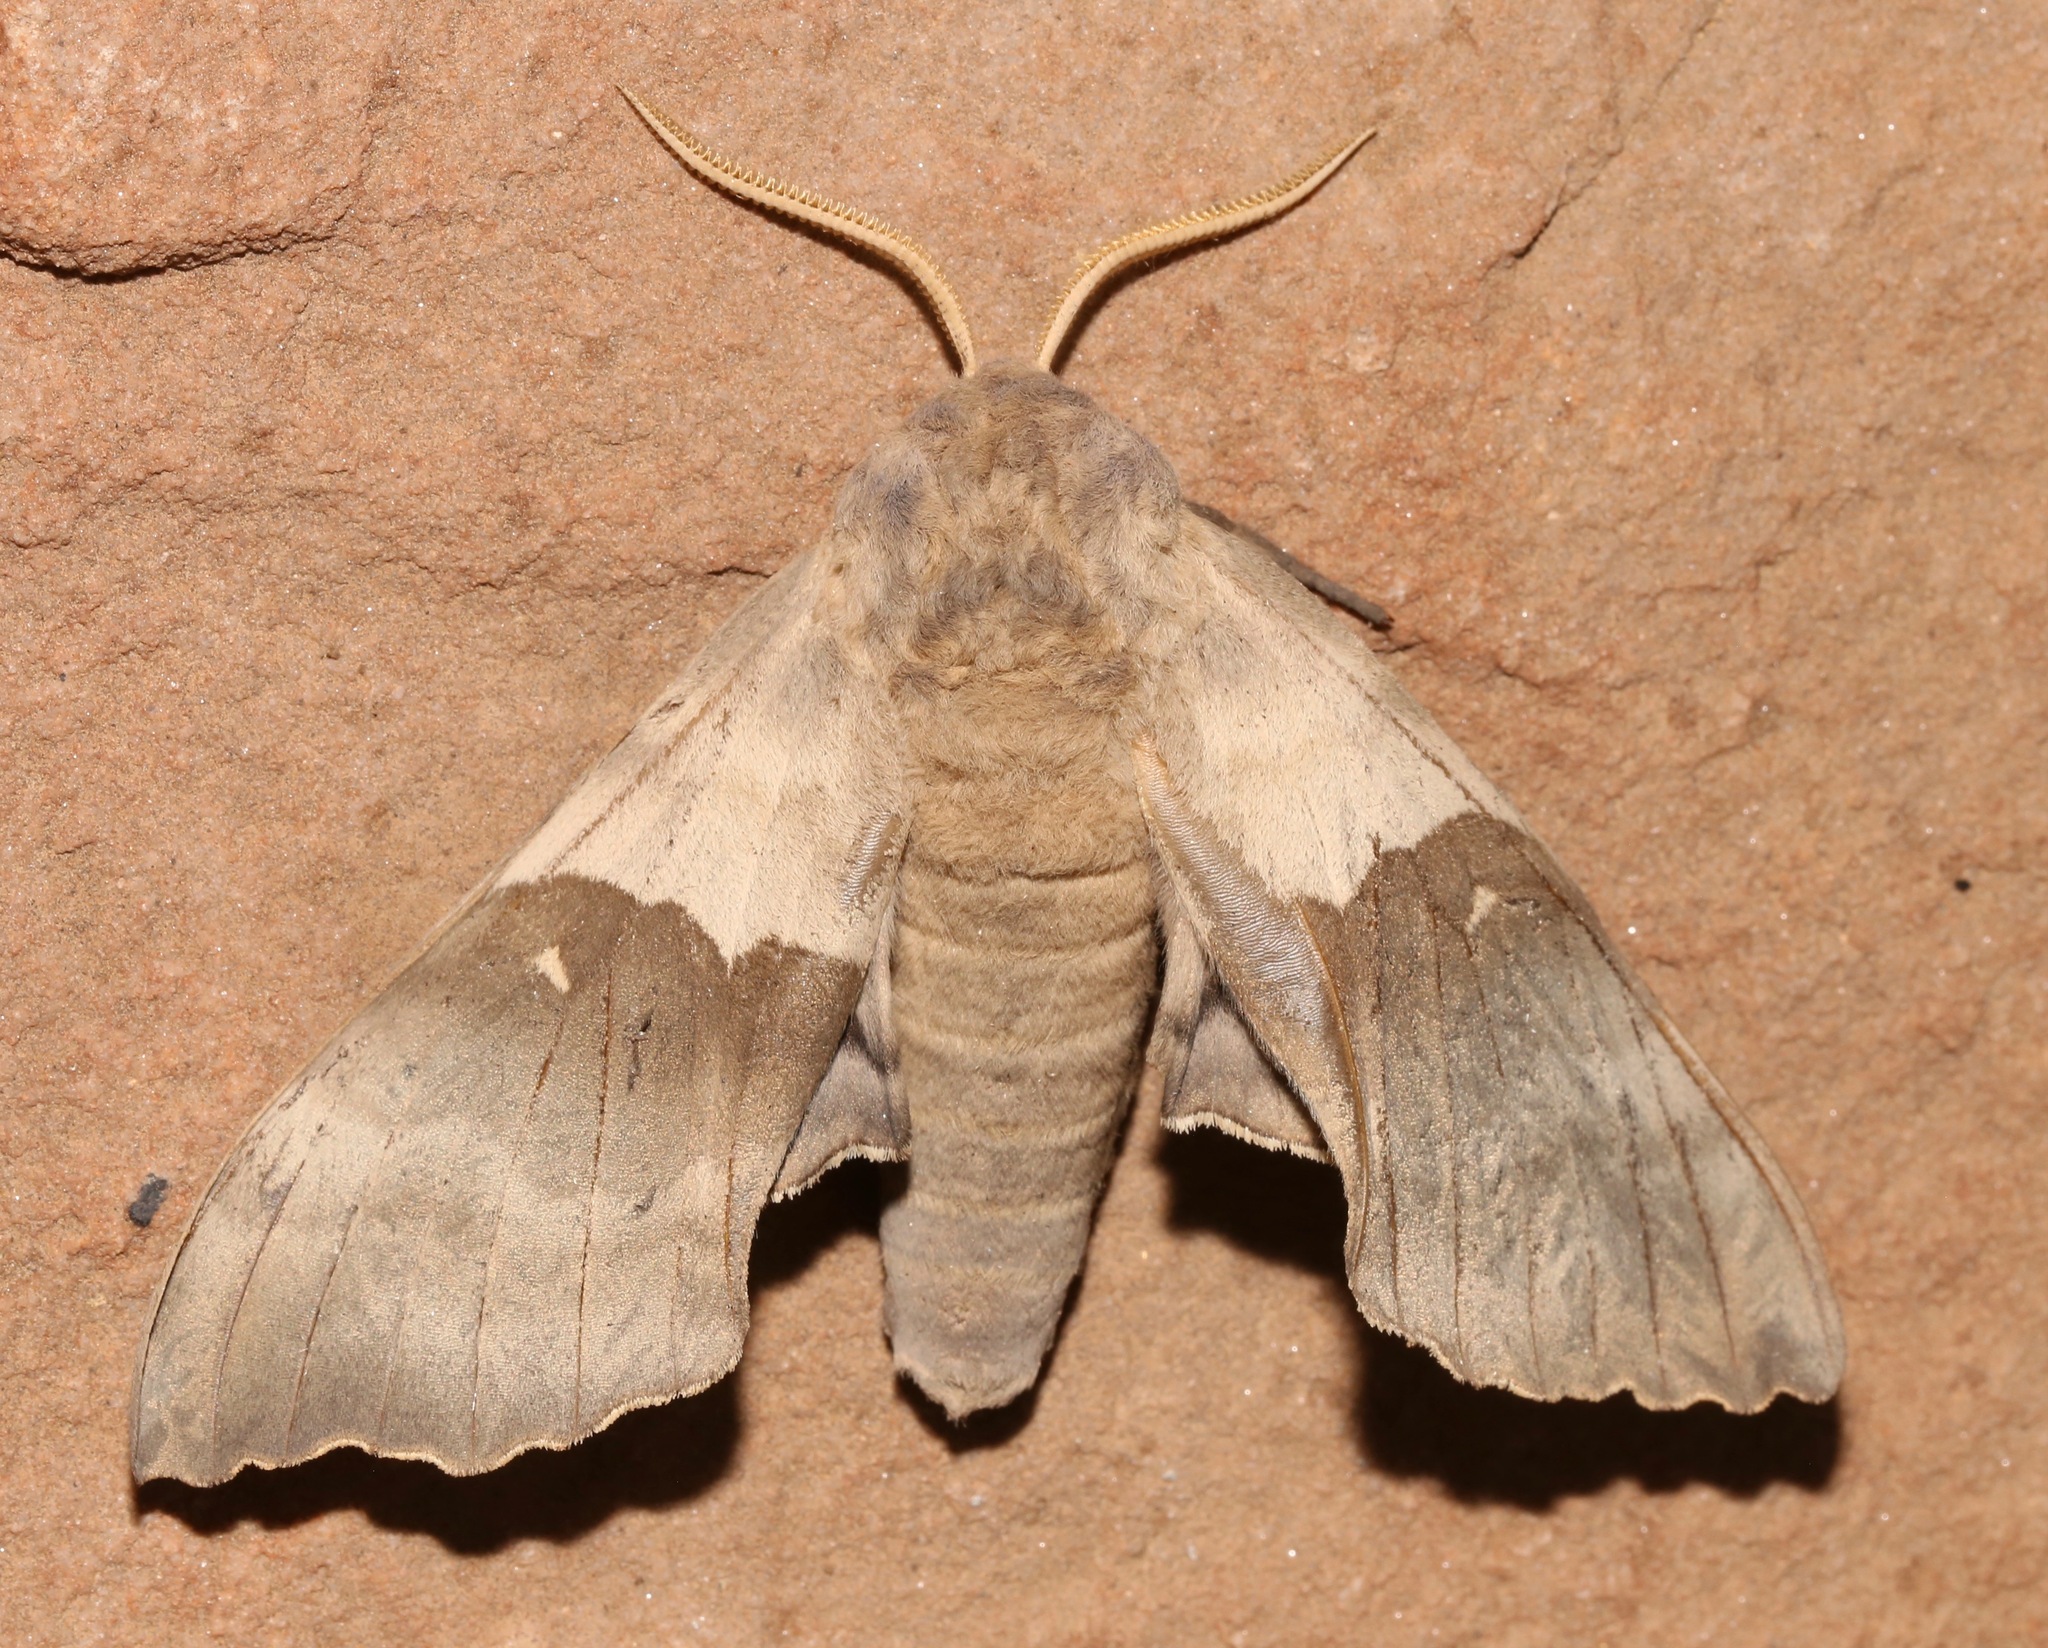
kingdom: Animalia
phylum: Arthropoda
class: Insecta
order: Lepidoptera
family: Sphingidae
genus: Pachysphinx
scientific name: Pachysphinx occidentalis
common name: Western poplar sphinx
